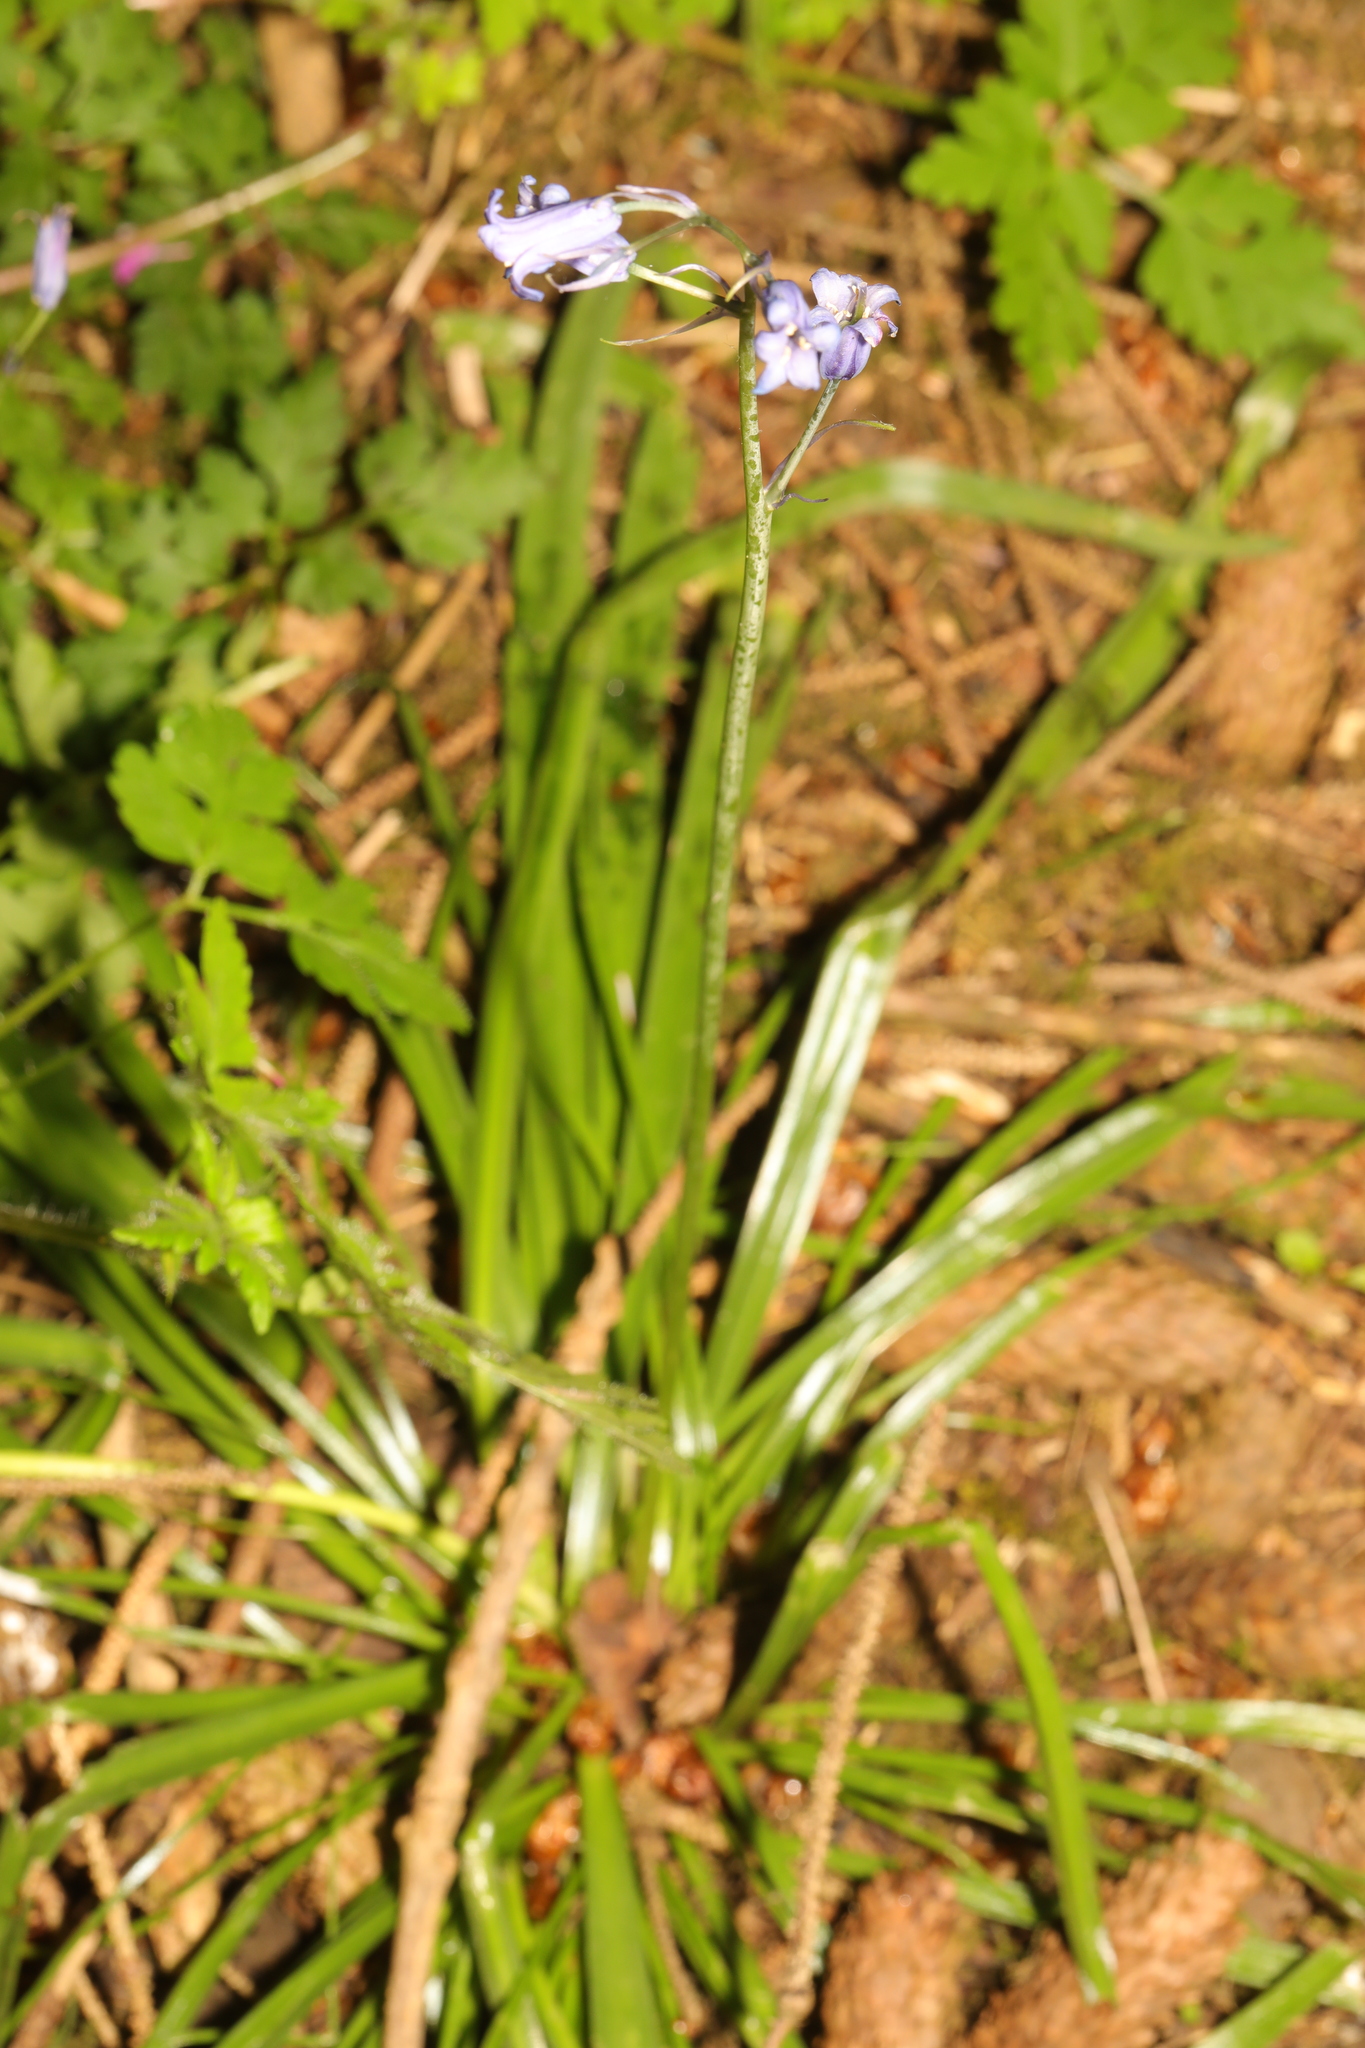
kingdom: Plantae
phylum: Tracheophyta
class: Liliopsida
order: Asparagales
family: Asparagaceae
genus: Hyacinthoides
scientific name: Hyacinthoides non-scripta
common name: Bluebell
